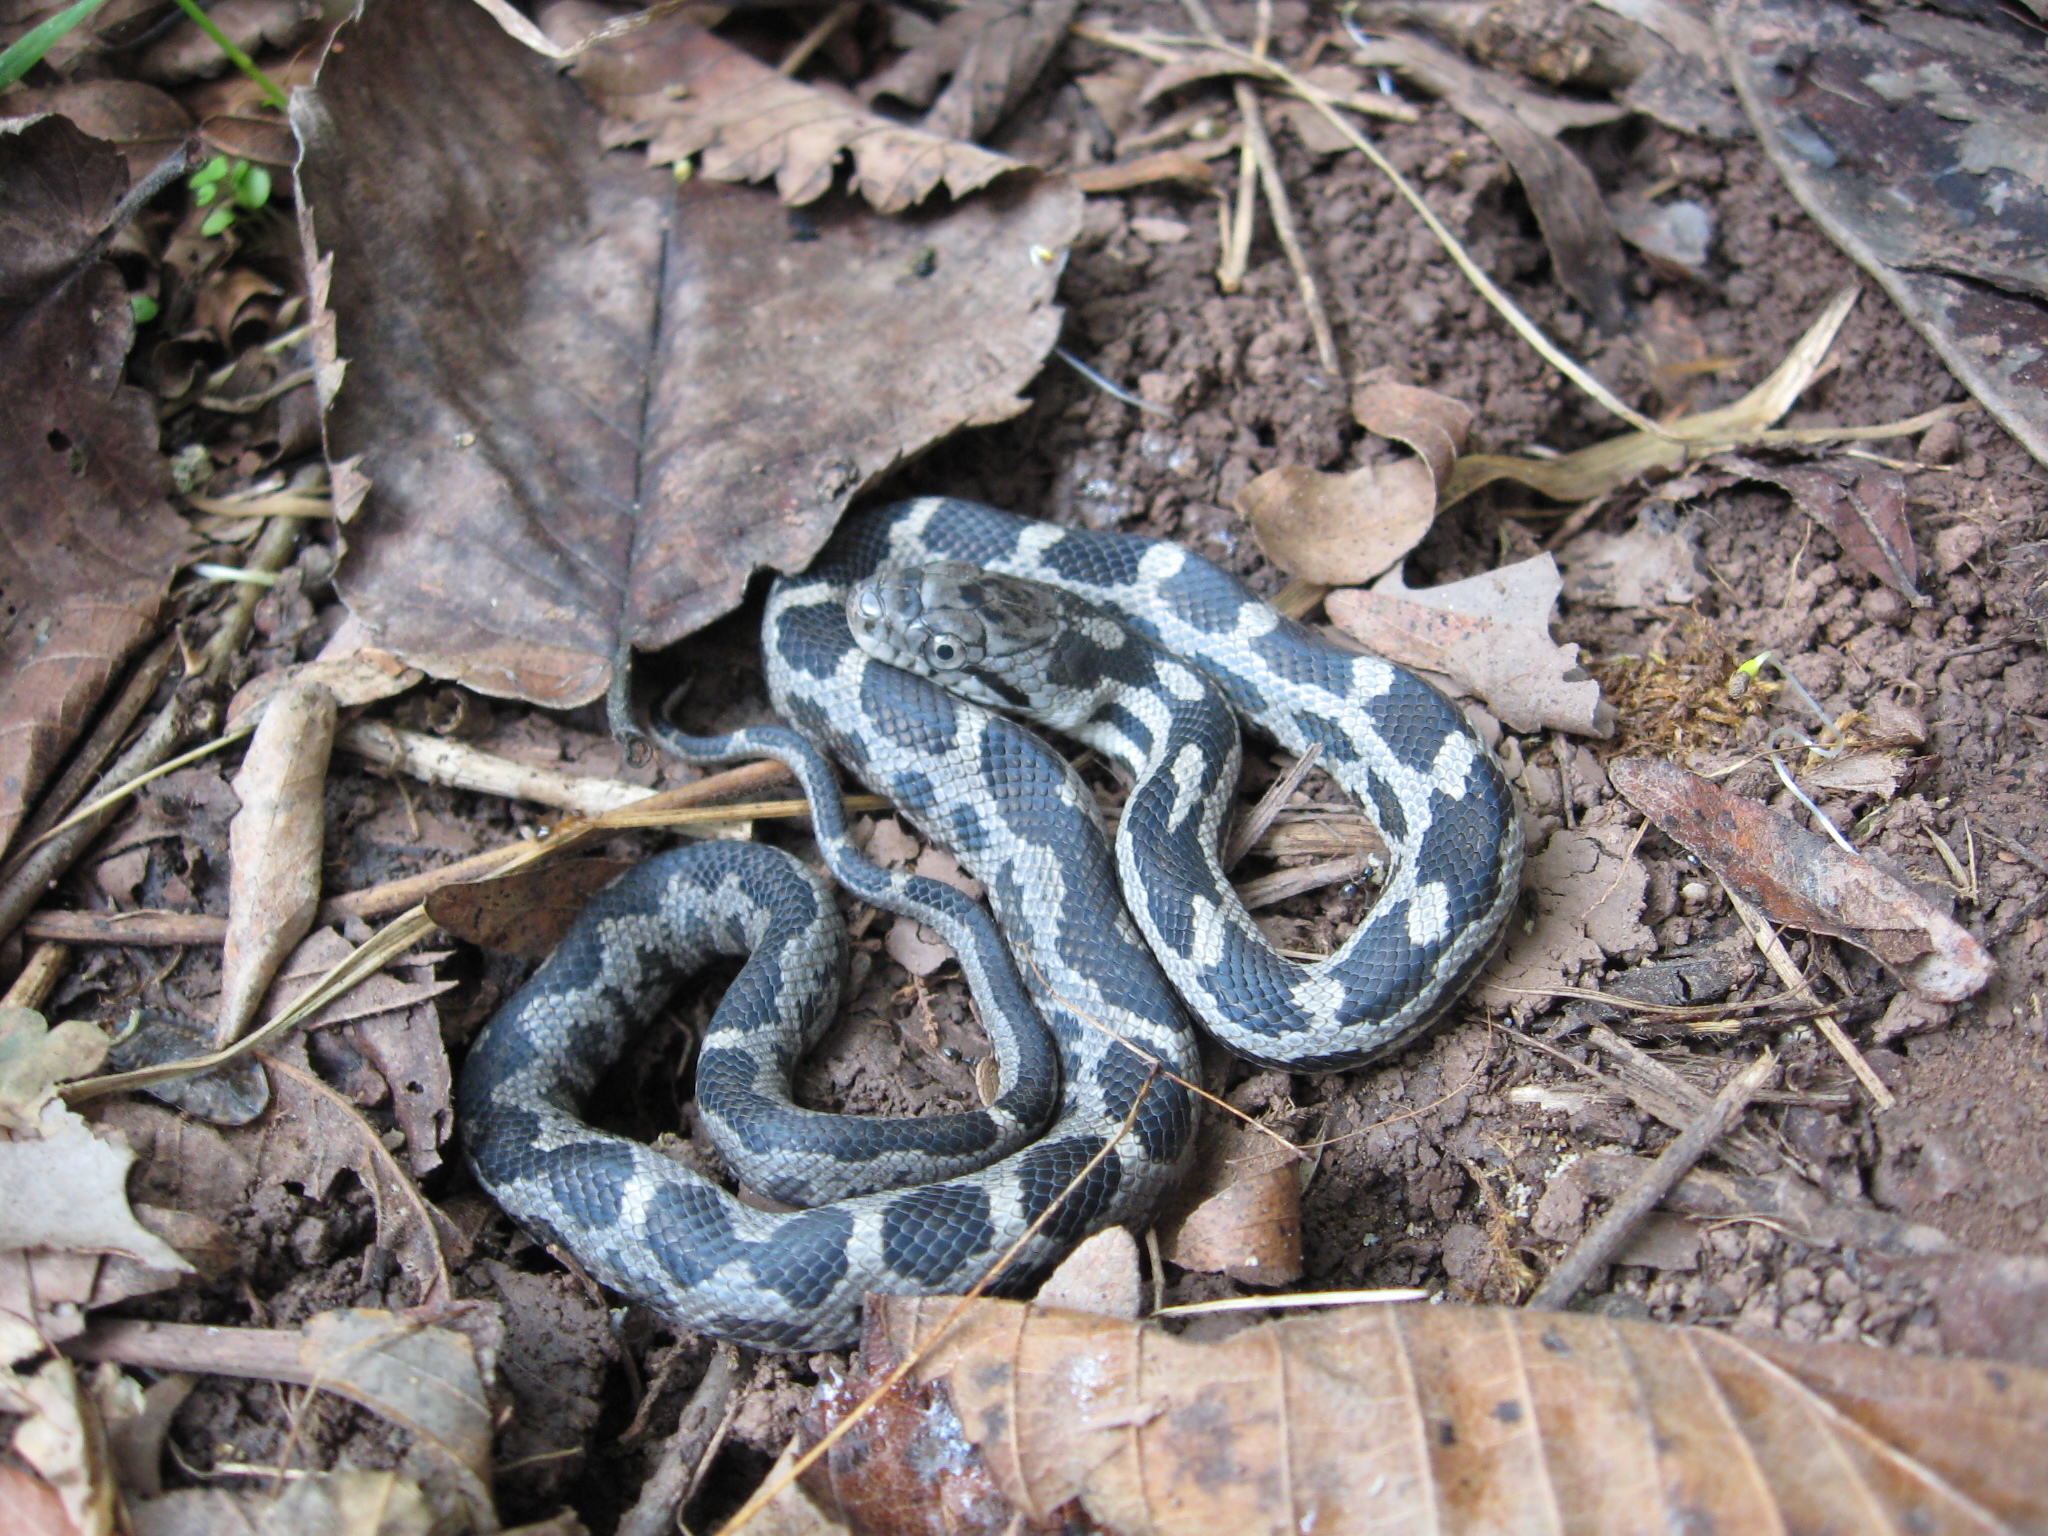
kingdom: Animalia
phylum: Chordata
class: Squamata
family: Colubridae
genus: Pantherophis
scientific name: Pantherophis spiloides
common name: Gray rat snake
